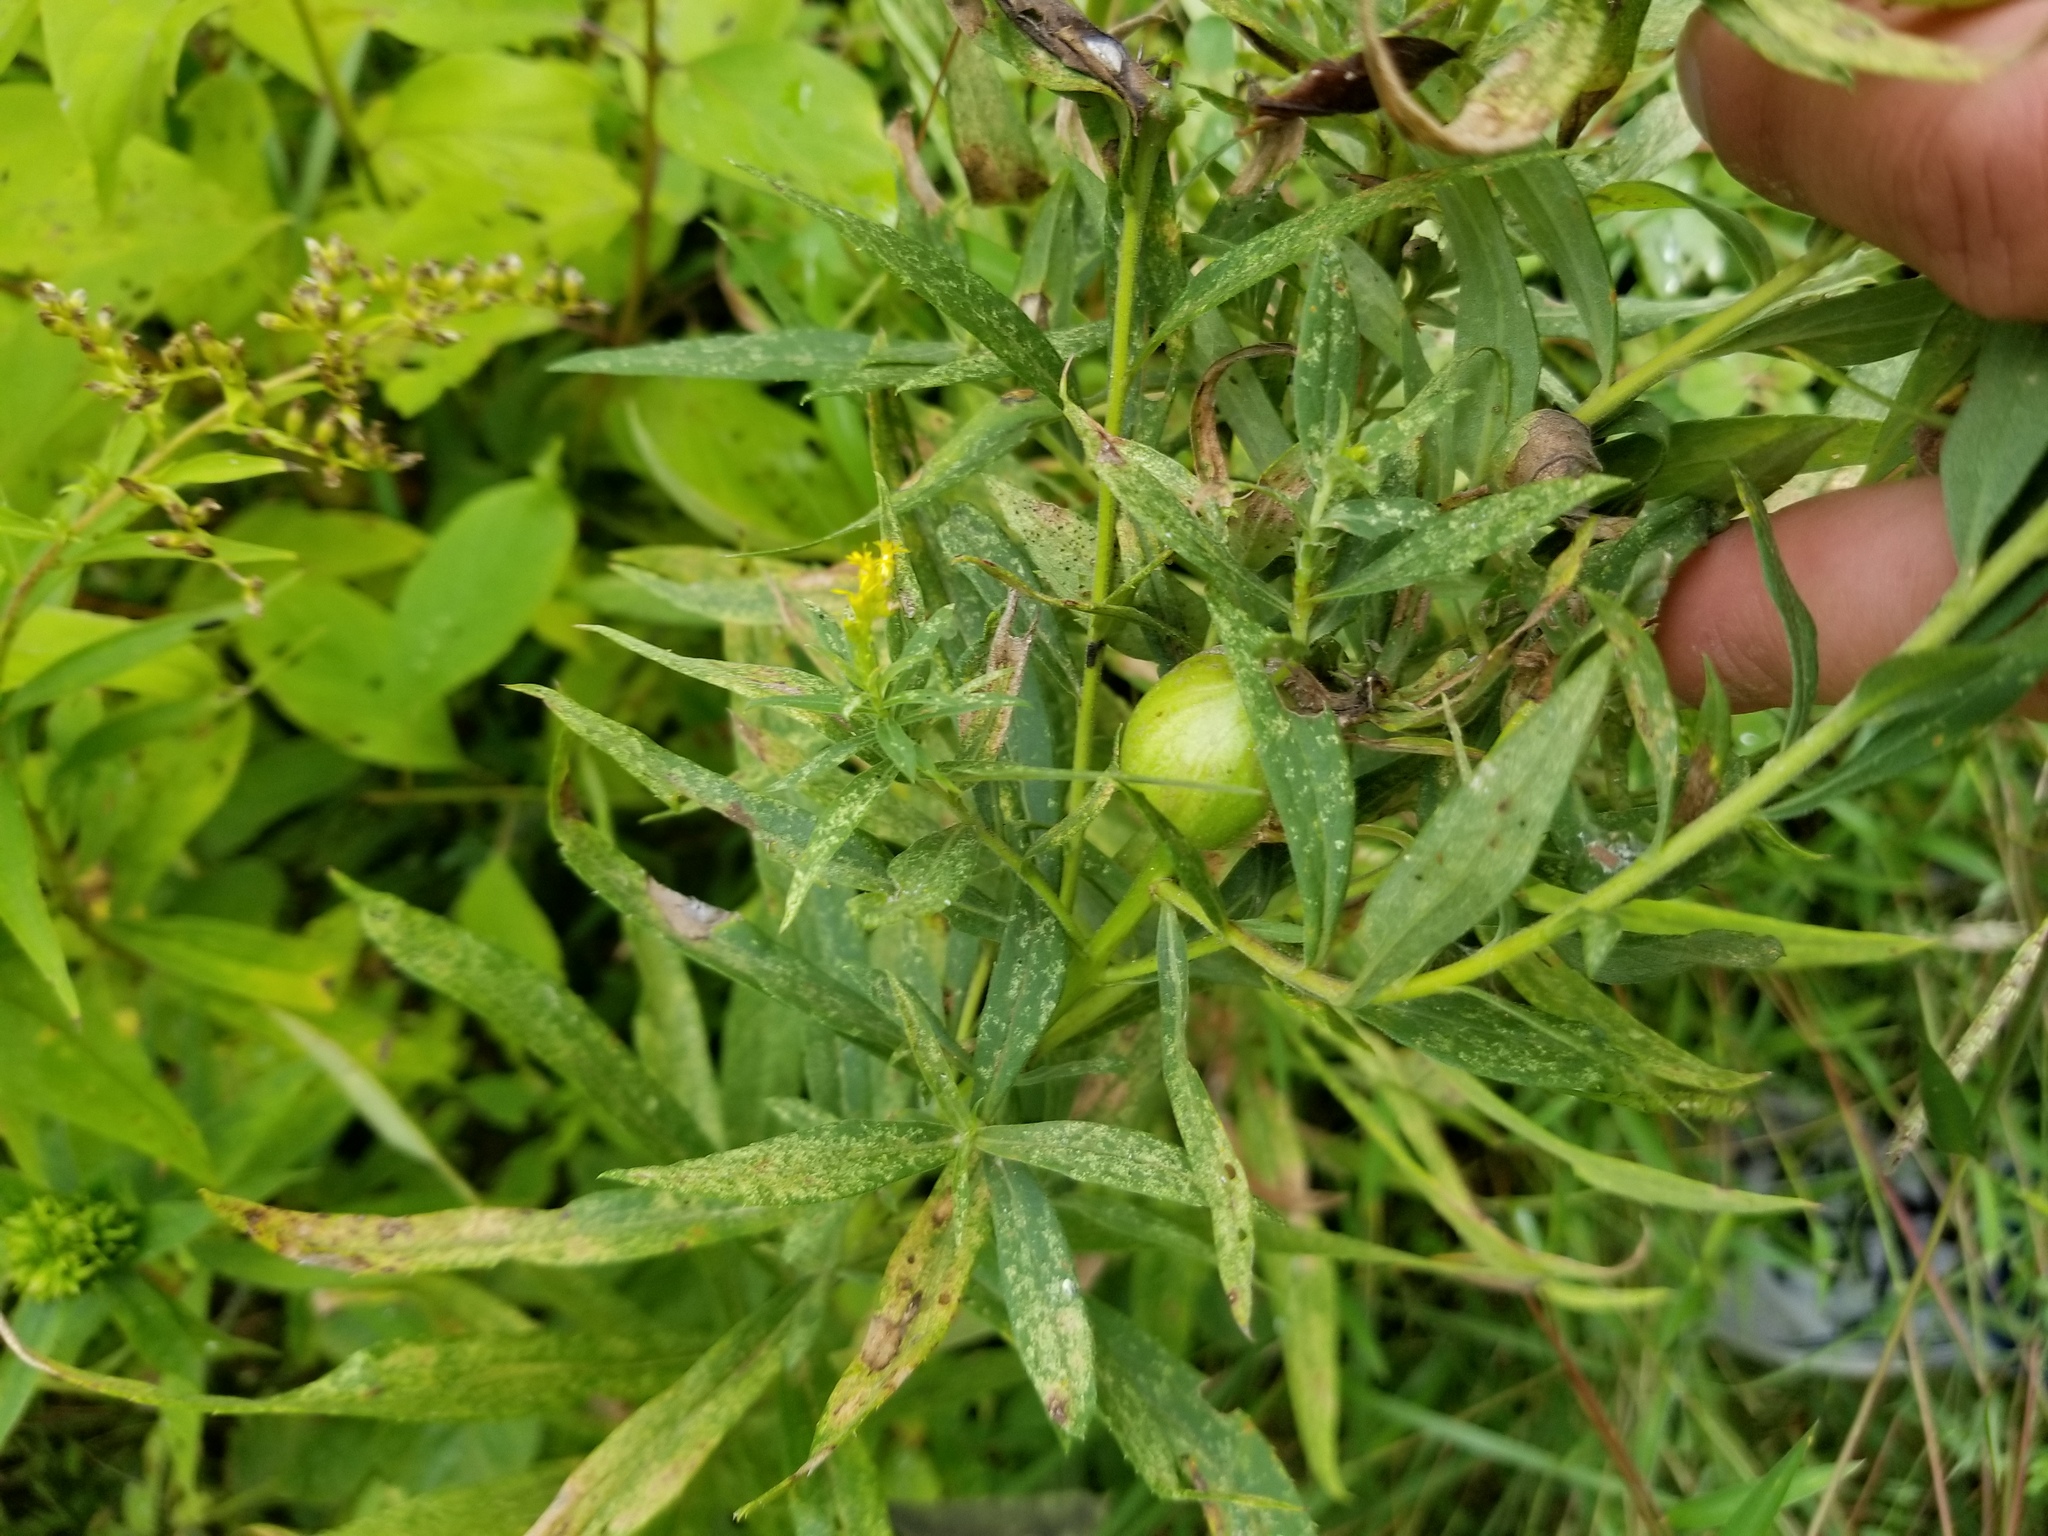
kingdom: Animalia
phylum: Arthropoda
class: Insecta
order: Diptera
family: Tephritidae
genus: Eurosta
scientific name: Eurosta solidaginis
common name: Goldenrod gall fly
